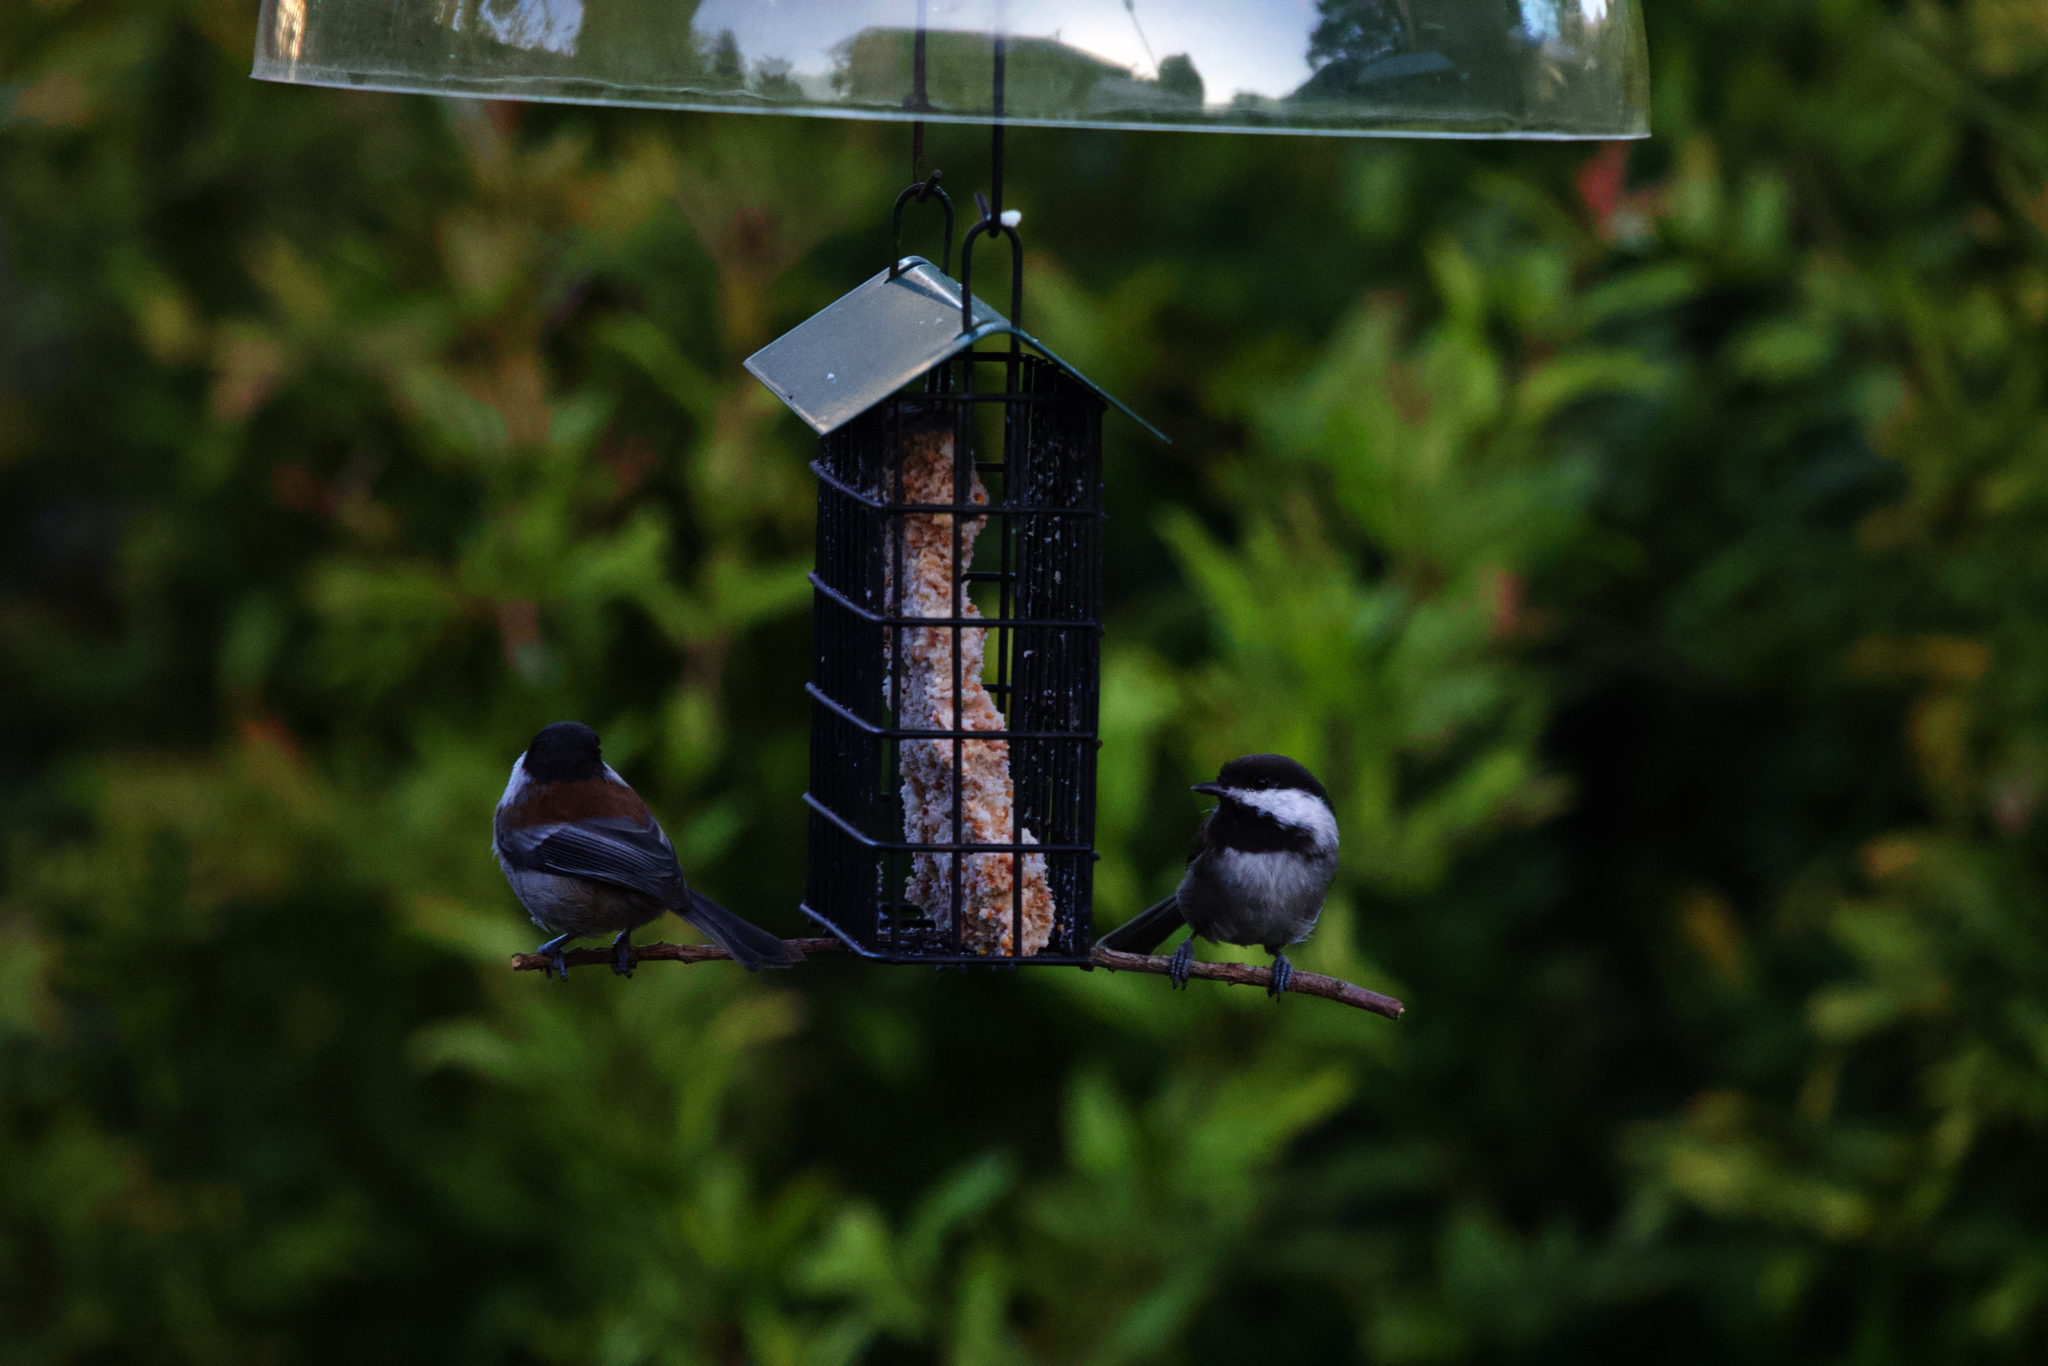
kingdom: Animalia
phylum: Chordata
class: Aves
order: Passeriformes
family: Paridae
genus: Poecile
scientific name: Poecile rufescens
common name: Chestnut-backed chickadee
